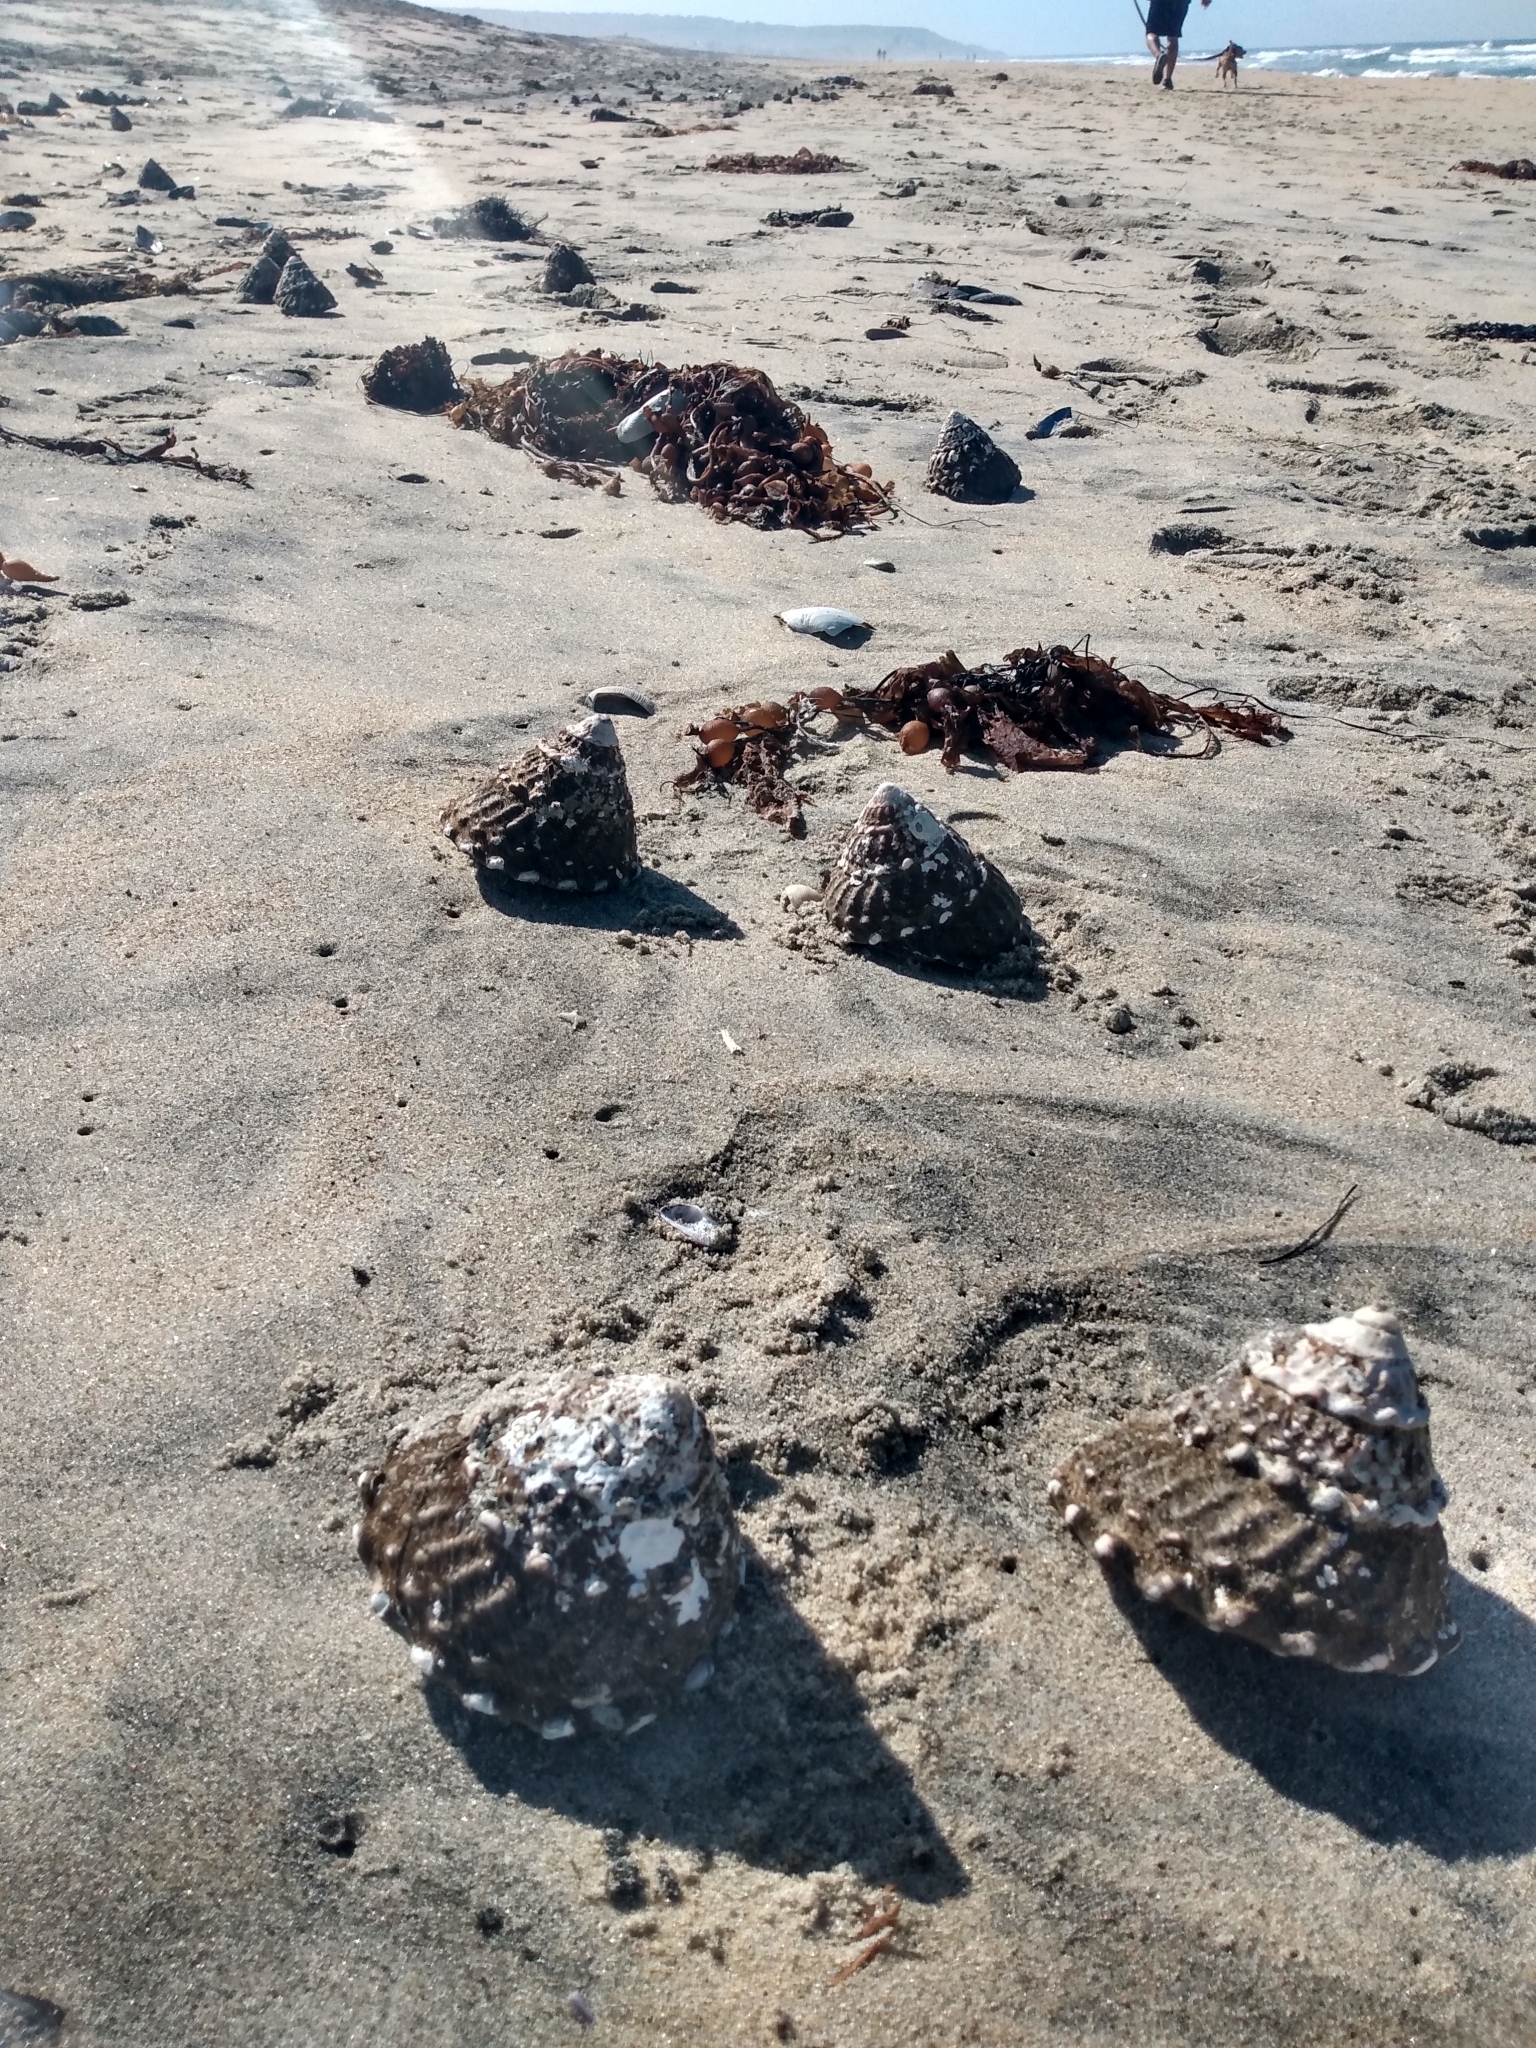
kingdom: Animalia
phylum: Mollusca
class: Gastropoda
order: Trochida
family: Turbinidae
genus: Megastraea
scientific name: Megastraea undosa
